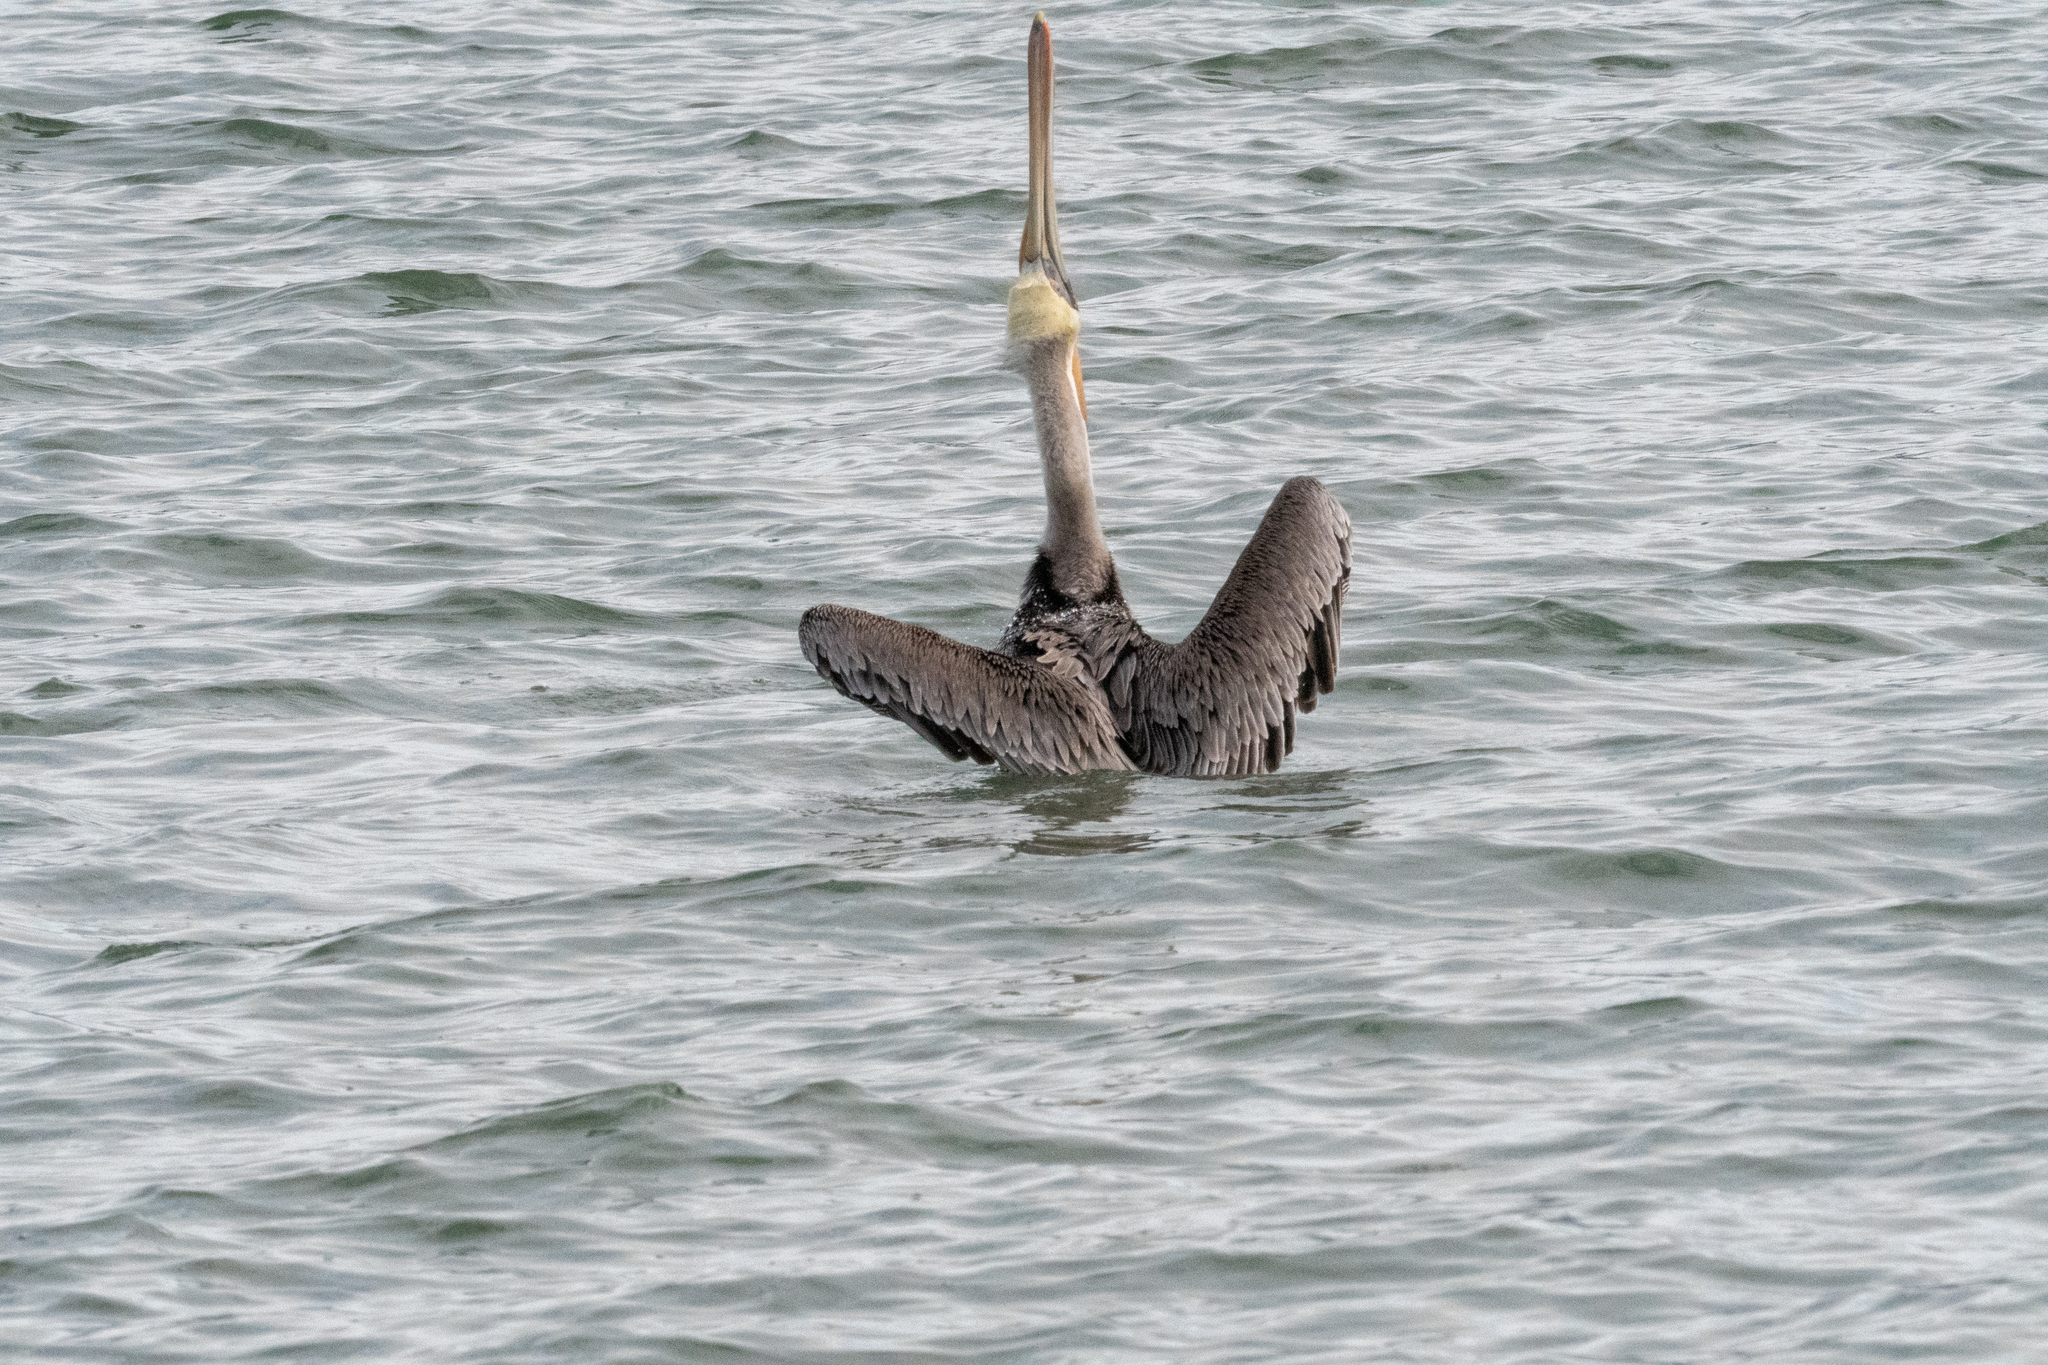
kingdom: Animalia
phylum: Chordata
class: Aves
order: Pelecaniformes
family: Pelecanidae
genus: Pelecanus
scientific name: Pelecanus occidentalis
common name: Brown pelican
